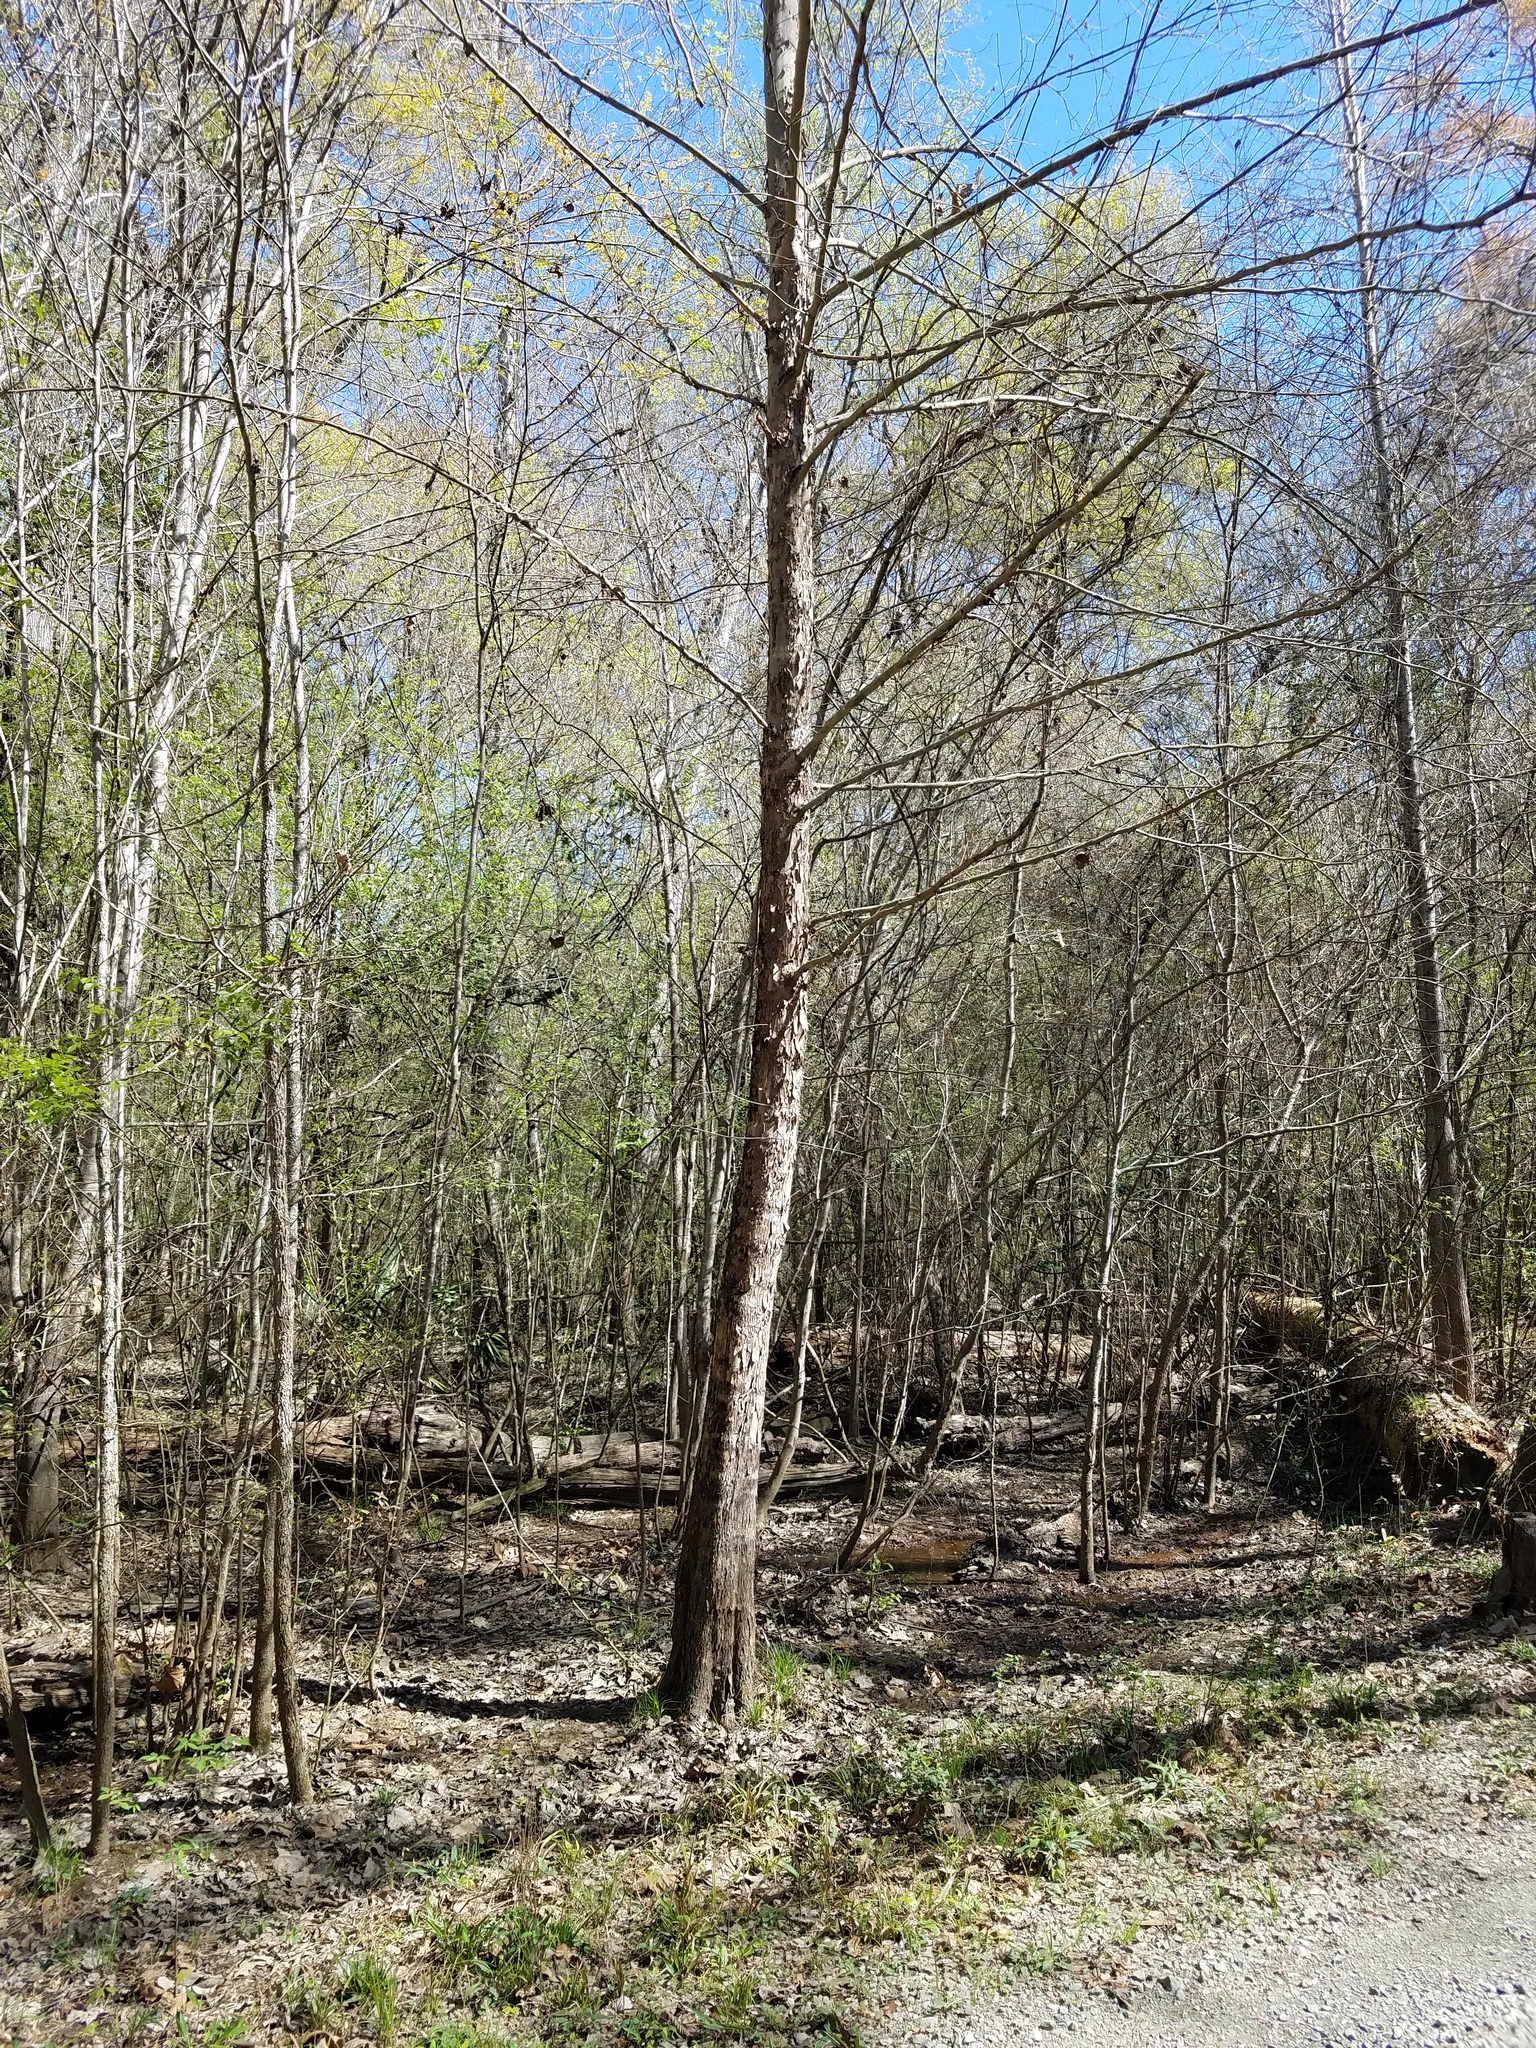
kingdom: Plantae
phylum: Tracheophyta
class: Magnoliopsida
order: Proteales
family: Platanaceae
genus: Platanus
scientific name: Platanus occidentalis
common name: American sycamore
